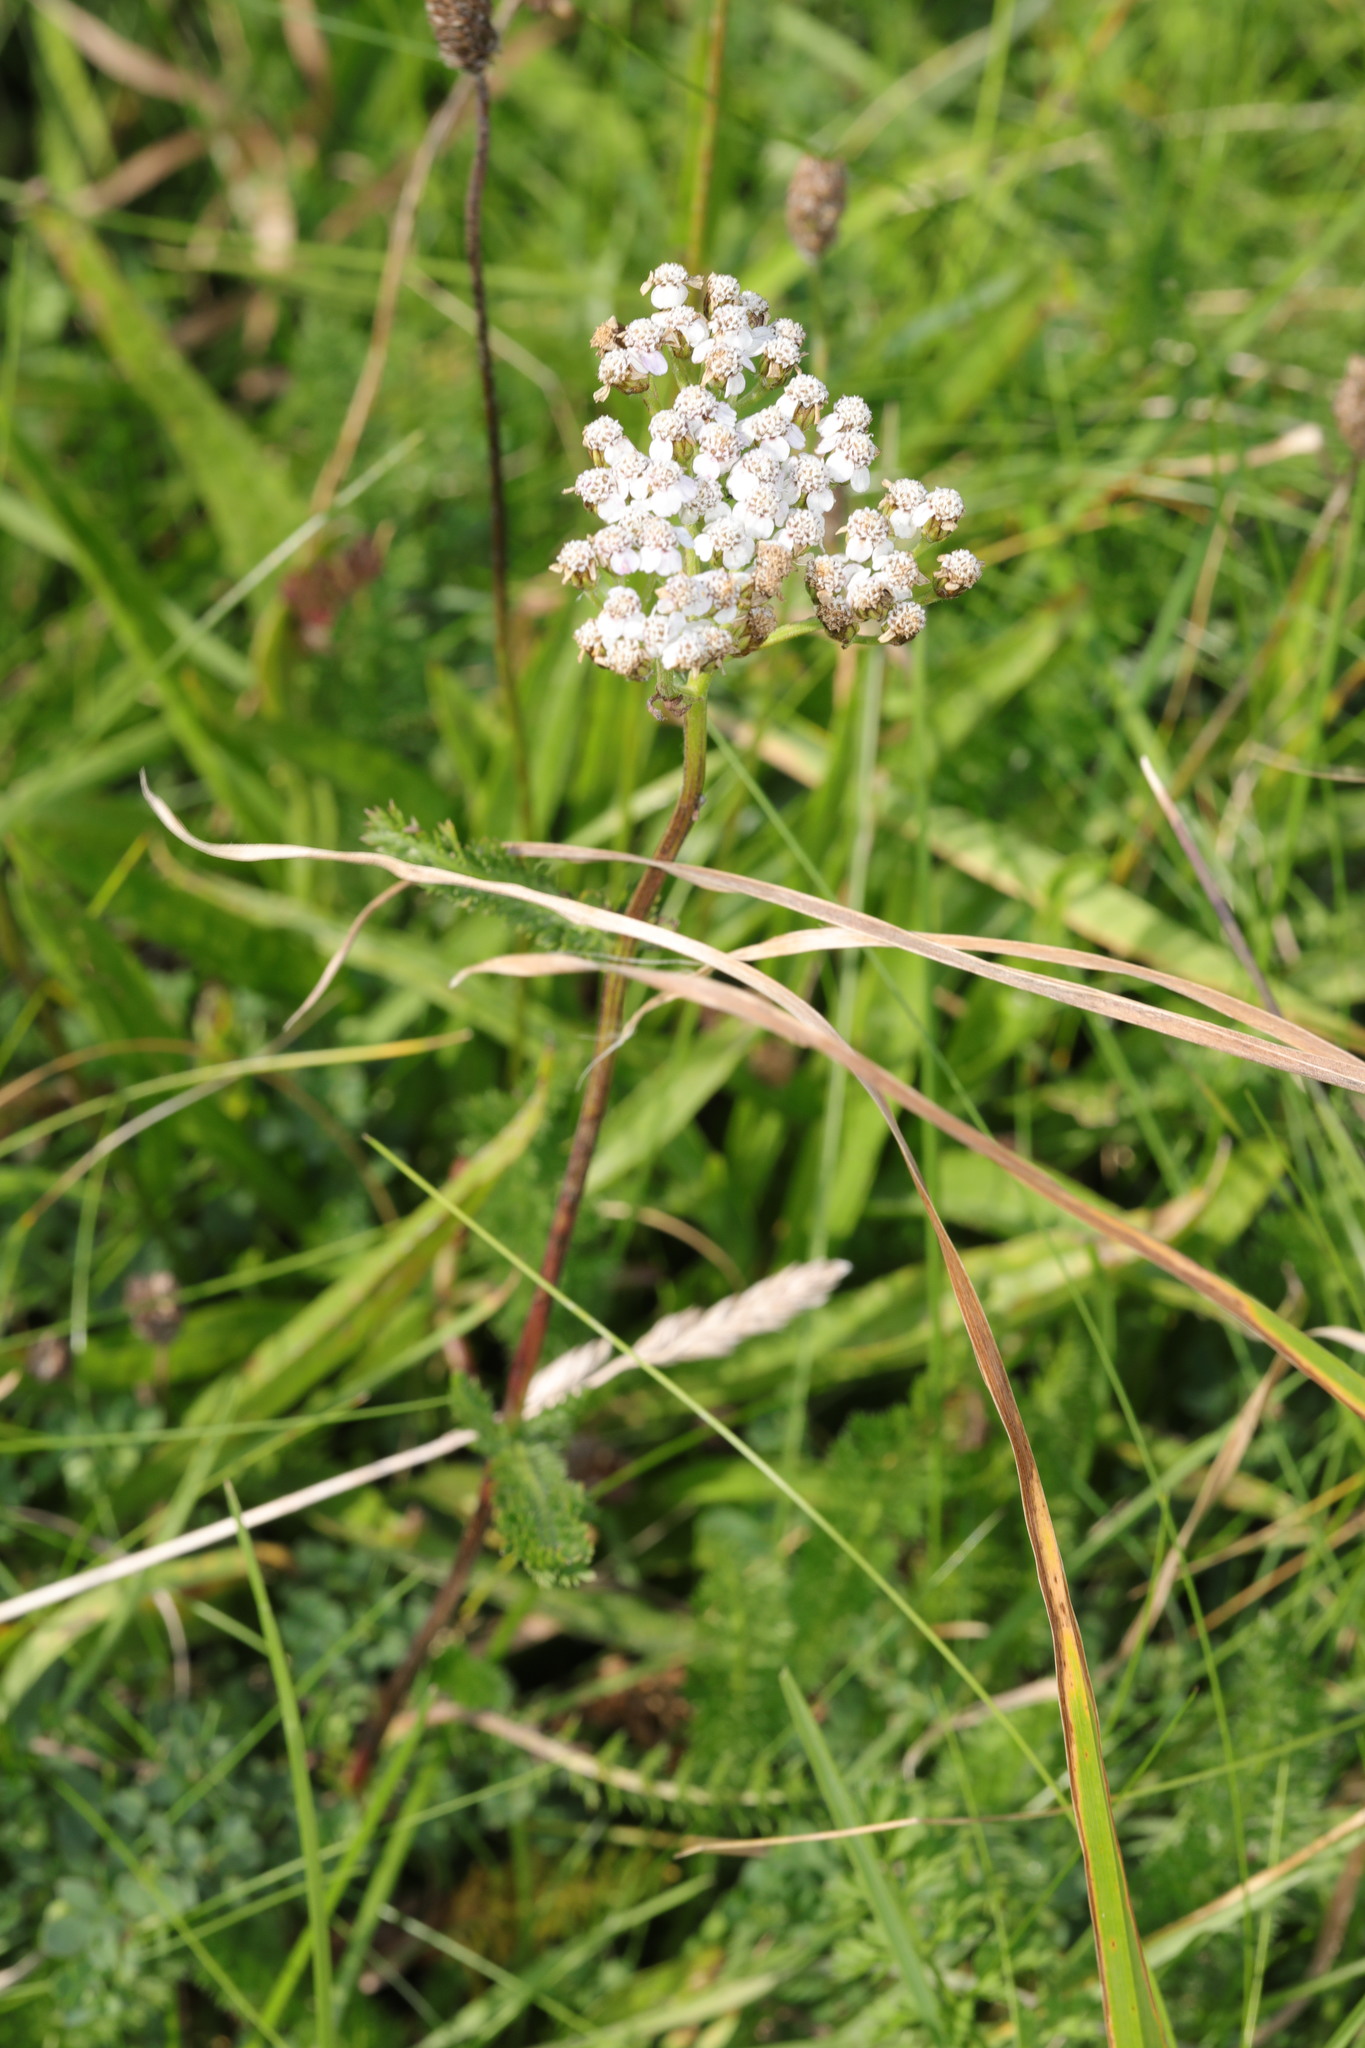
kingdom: Plantae
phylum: Tracheophyta
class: Magnoliopsida
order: Asterales
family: Asteraceae
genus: Achillea
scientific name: Achillea millefolium
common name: Yarrow
